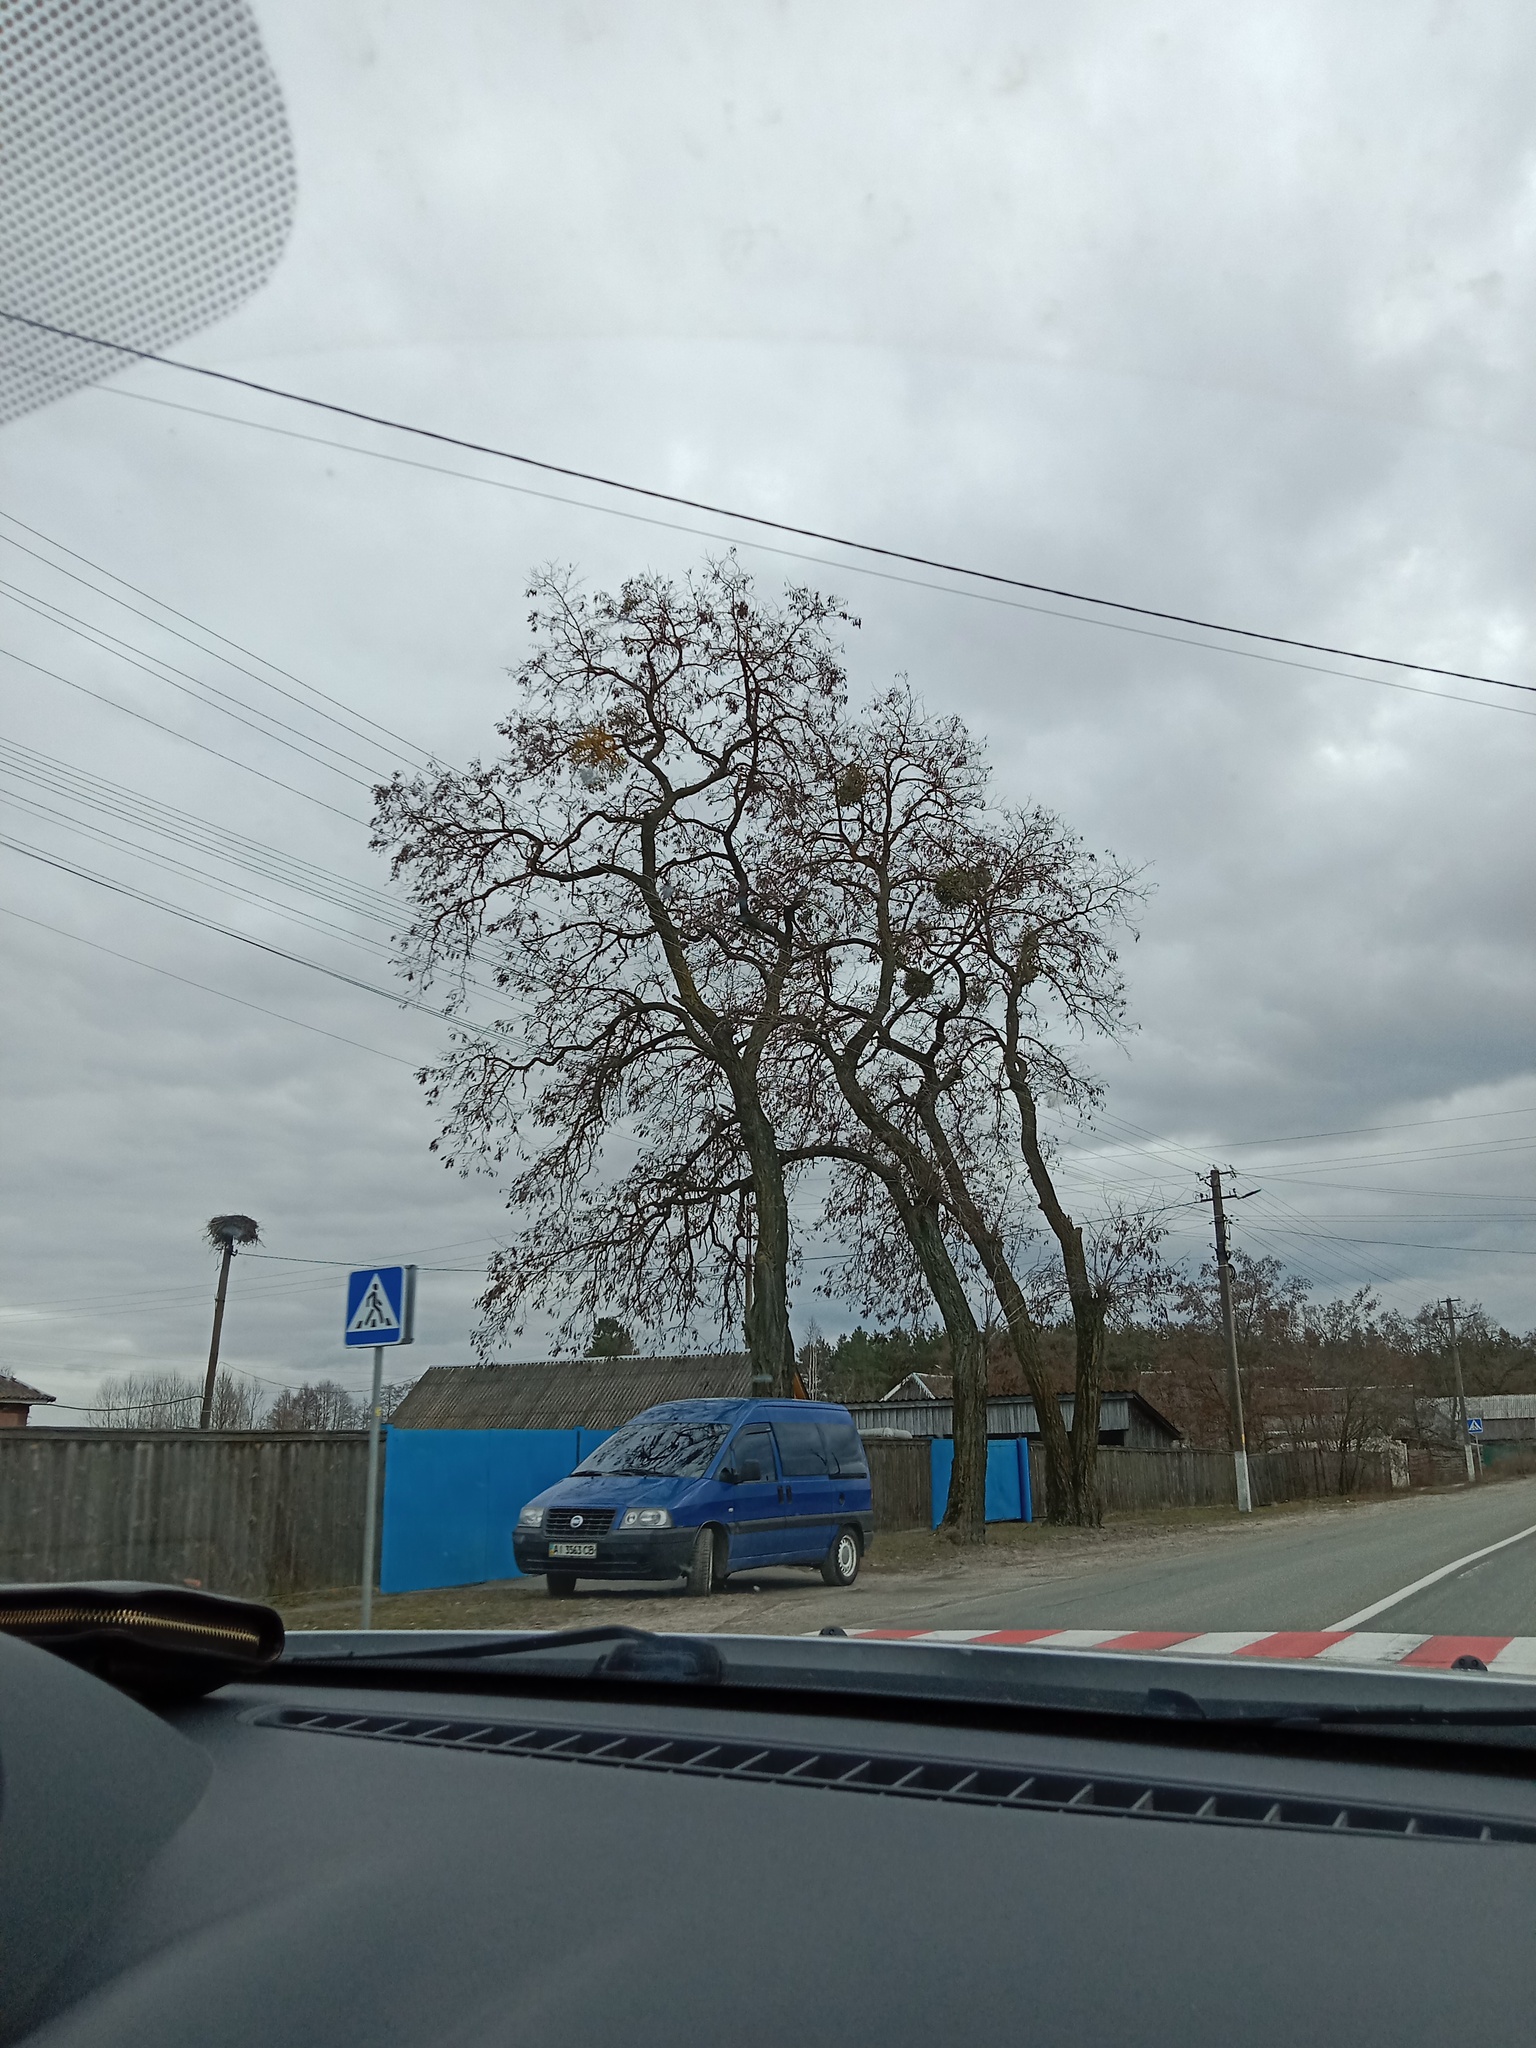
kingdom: Plantae
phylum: Tracheophyta
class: Magnoliopsida
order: Santalales
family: Viscaceae
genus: Viscum
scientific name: Viscum album
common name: Mistletoe
